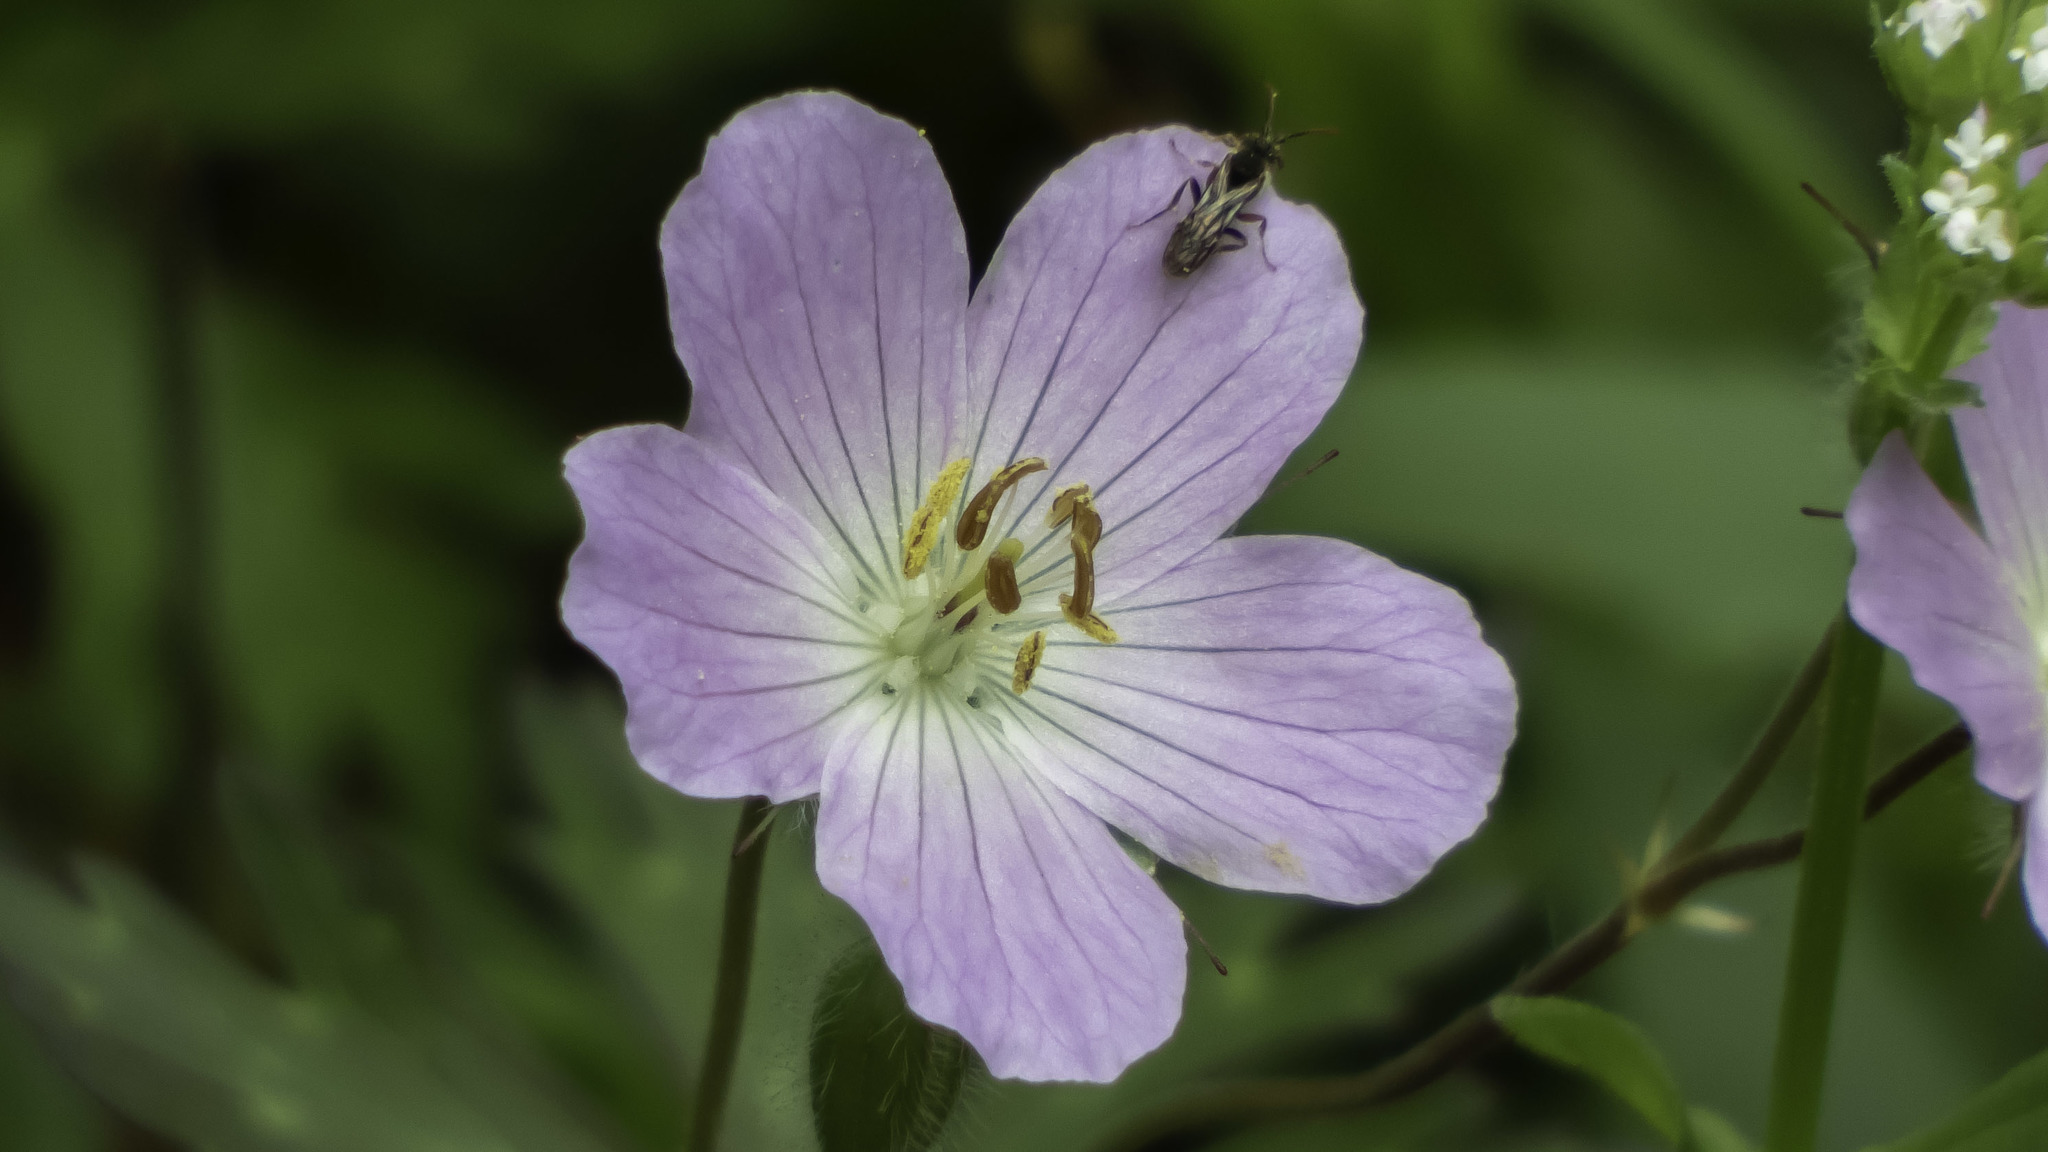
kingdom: Plantae
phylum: Tracheophyta
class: Magnoliopsida
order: Geraniales
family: Geraniaceae
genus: Geranium
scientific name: Geranium maculatum
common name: Spotted geranium
